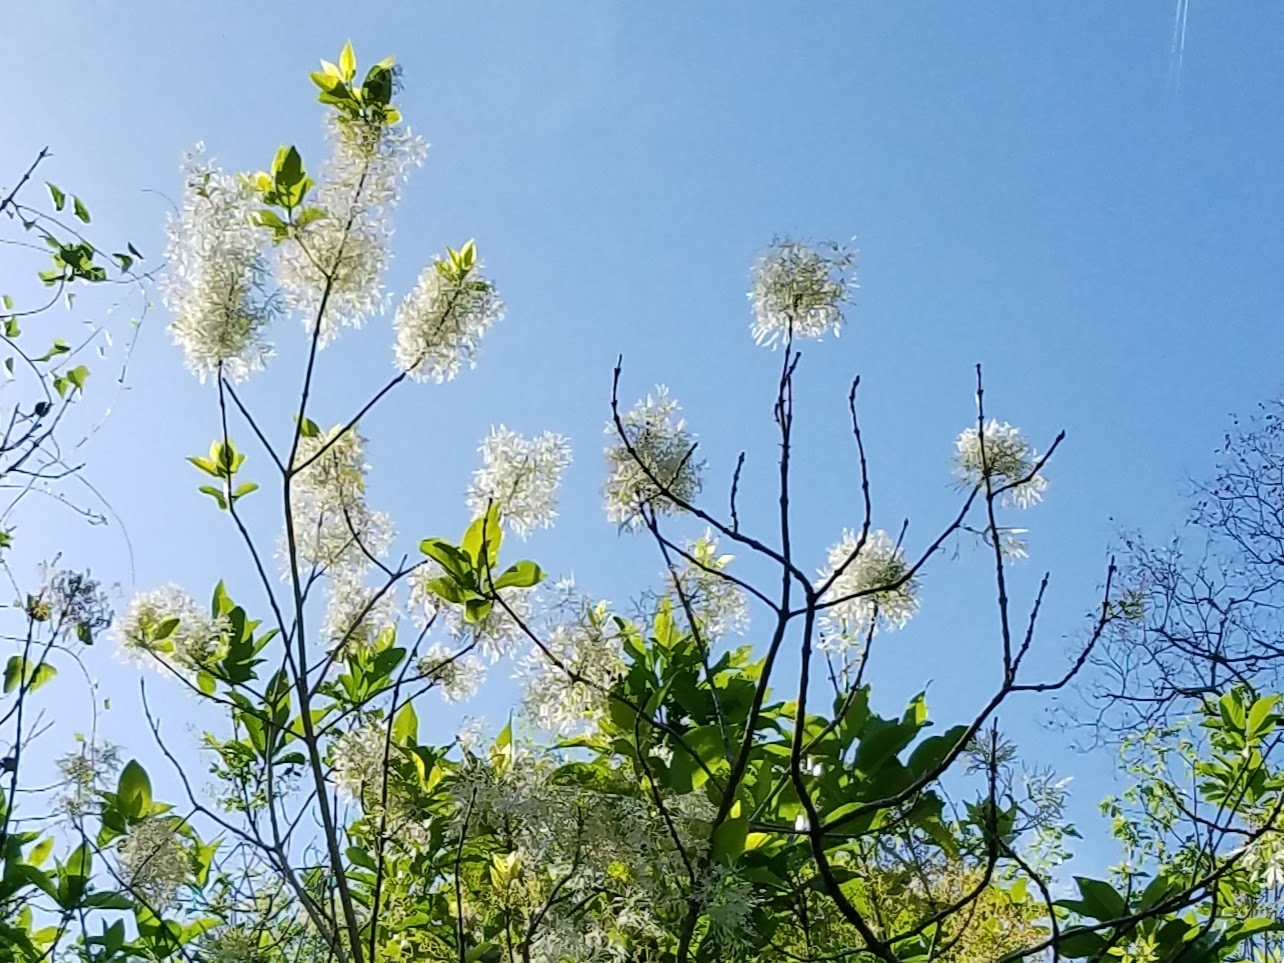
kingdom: Plantae
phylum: Tracheophyta
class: Magnoliopsida
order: Lamiales
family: Oleaceae
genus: Chionanthus
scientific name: Chionanthus virginicus
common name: American fringetree
